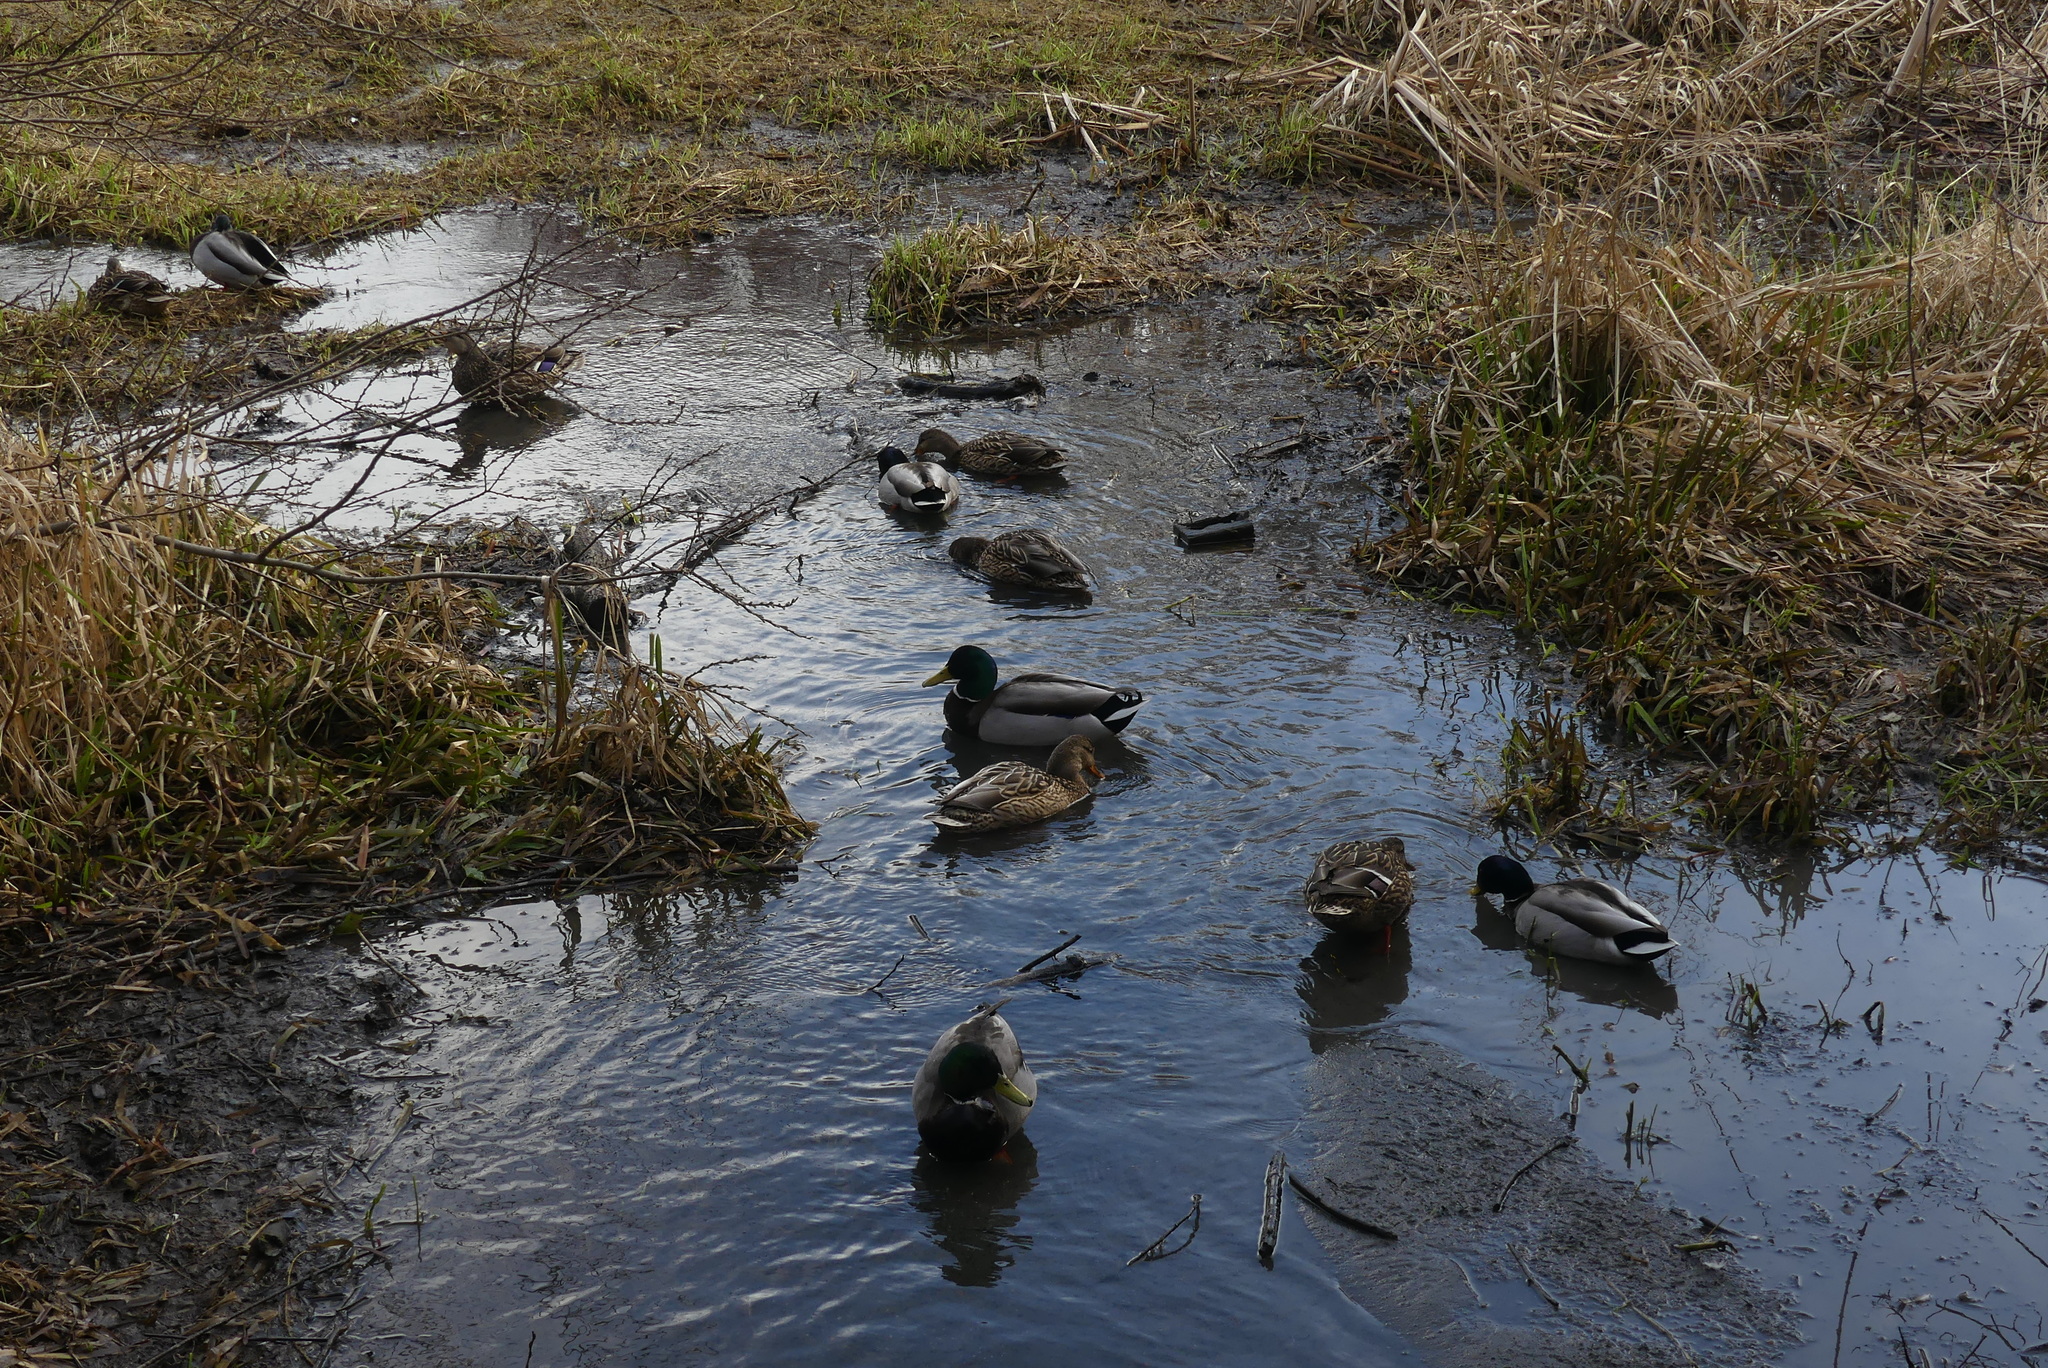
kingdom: Animalia
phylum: Chordata
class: Aves
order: Anseriformes
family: Anatidae
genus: Anas
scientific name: Anas platyrhynchos
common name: Mallard
